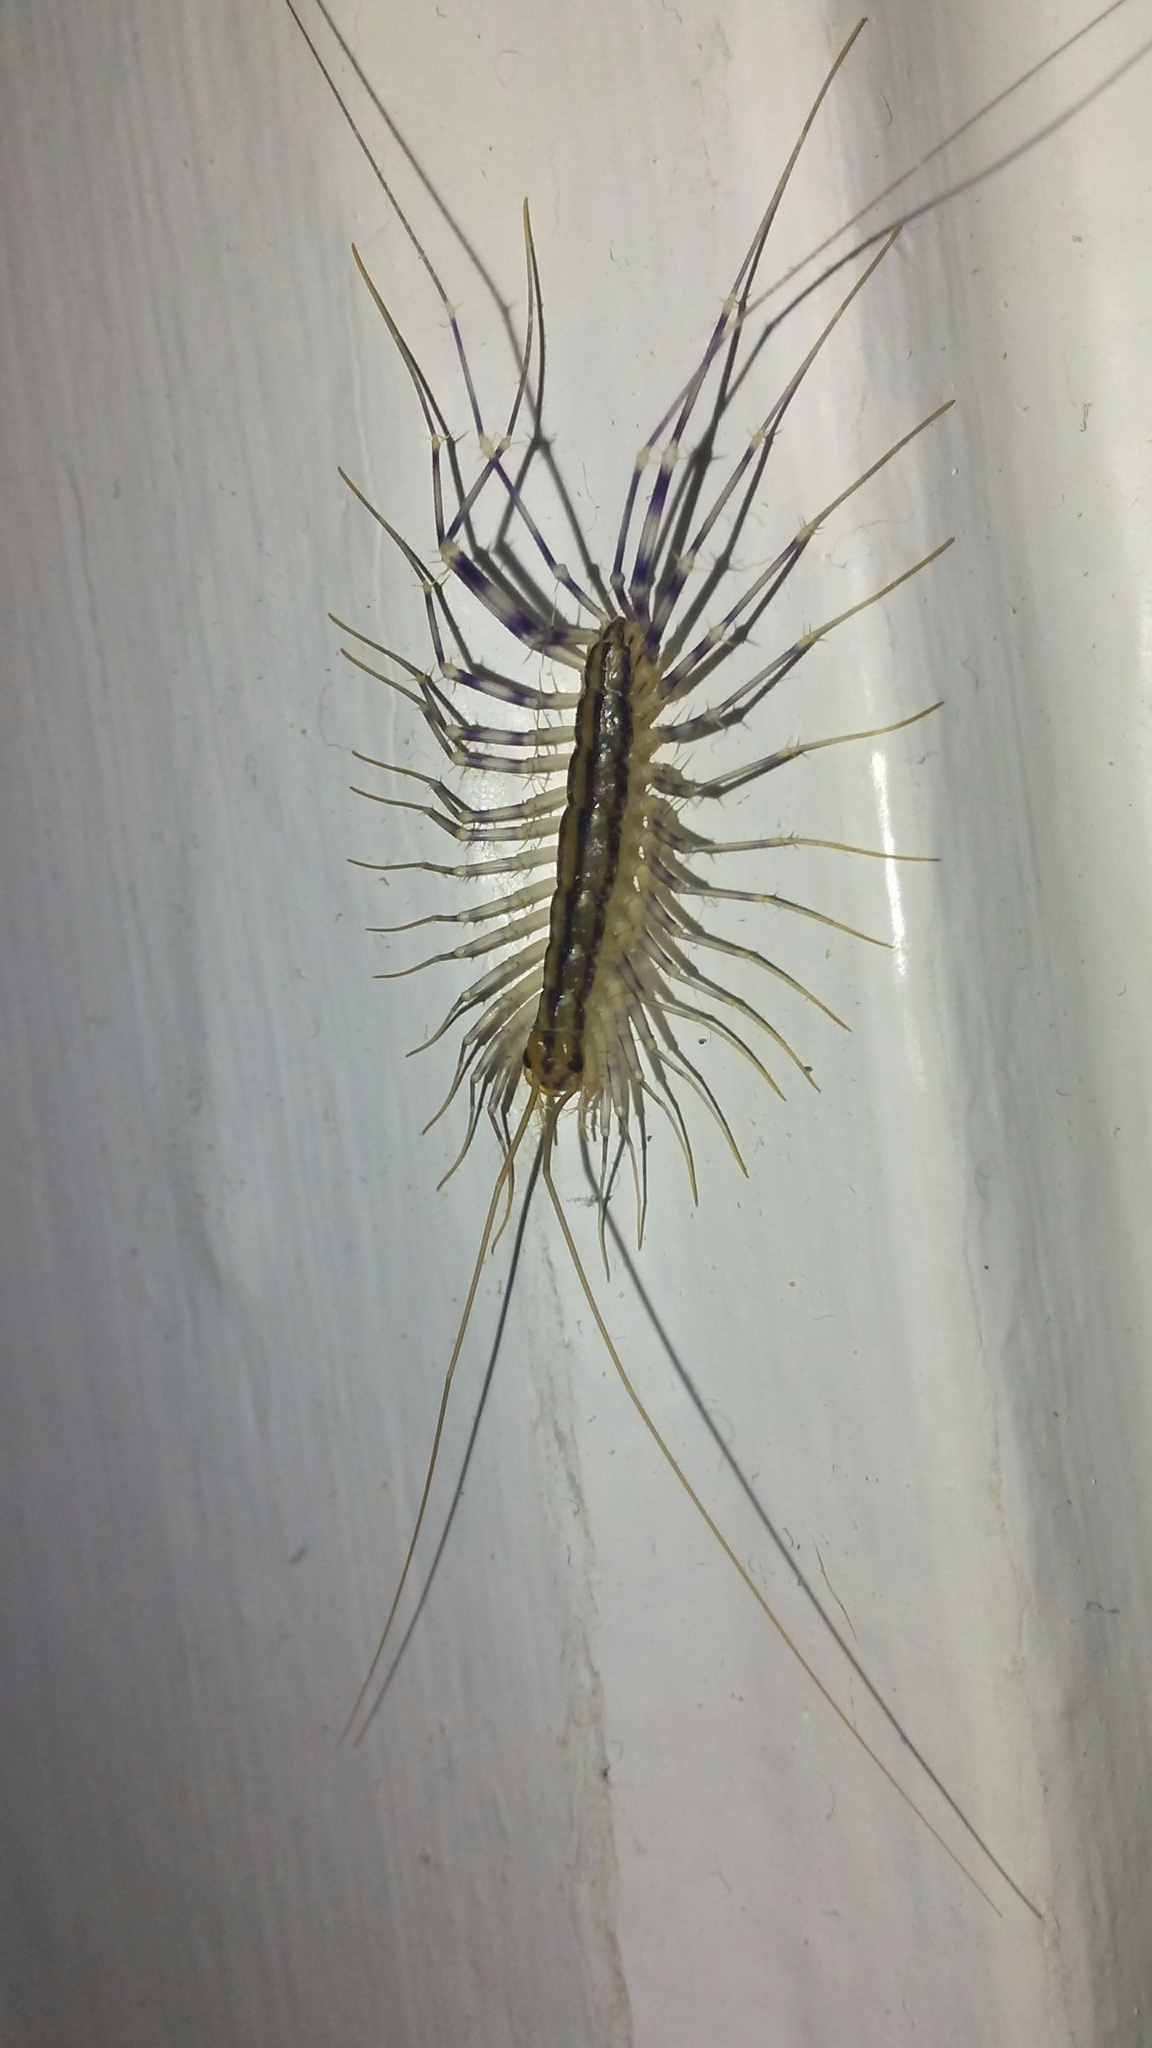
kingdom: Animalia
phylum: Arthropoda
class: Chilopoda
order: Scutigeromorpha
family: Scutigeridae
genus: Scutigera
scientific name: Scutigera coleoptrata
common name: House centipede
